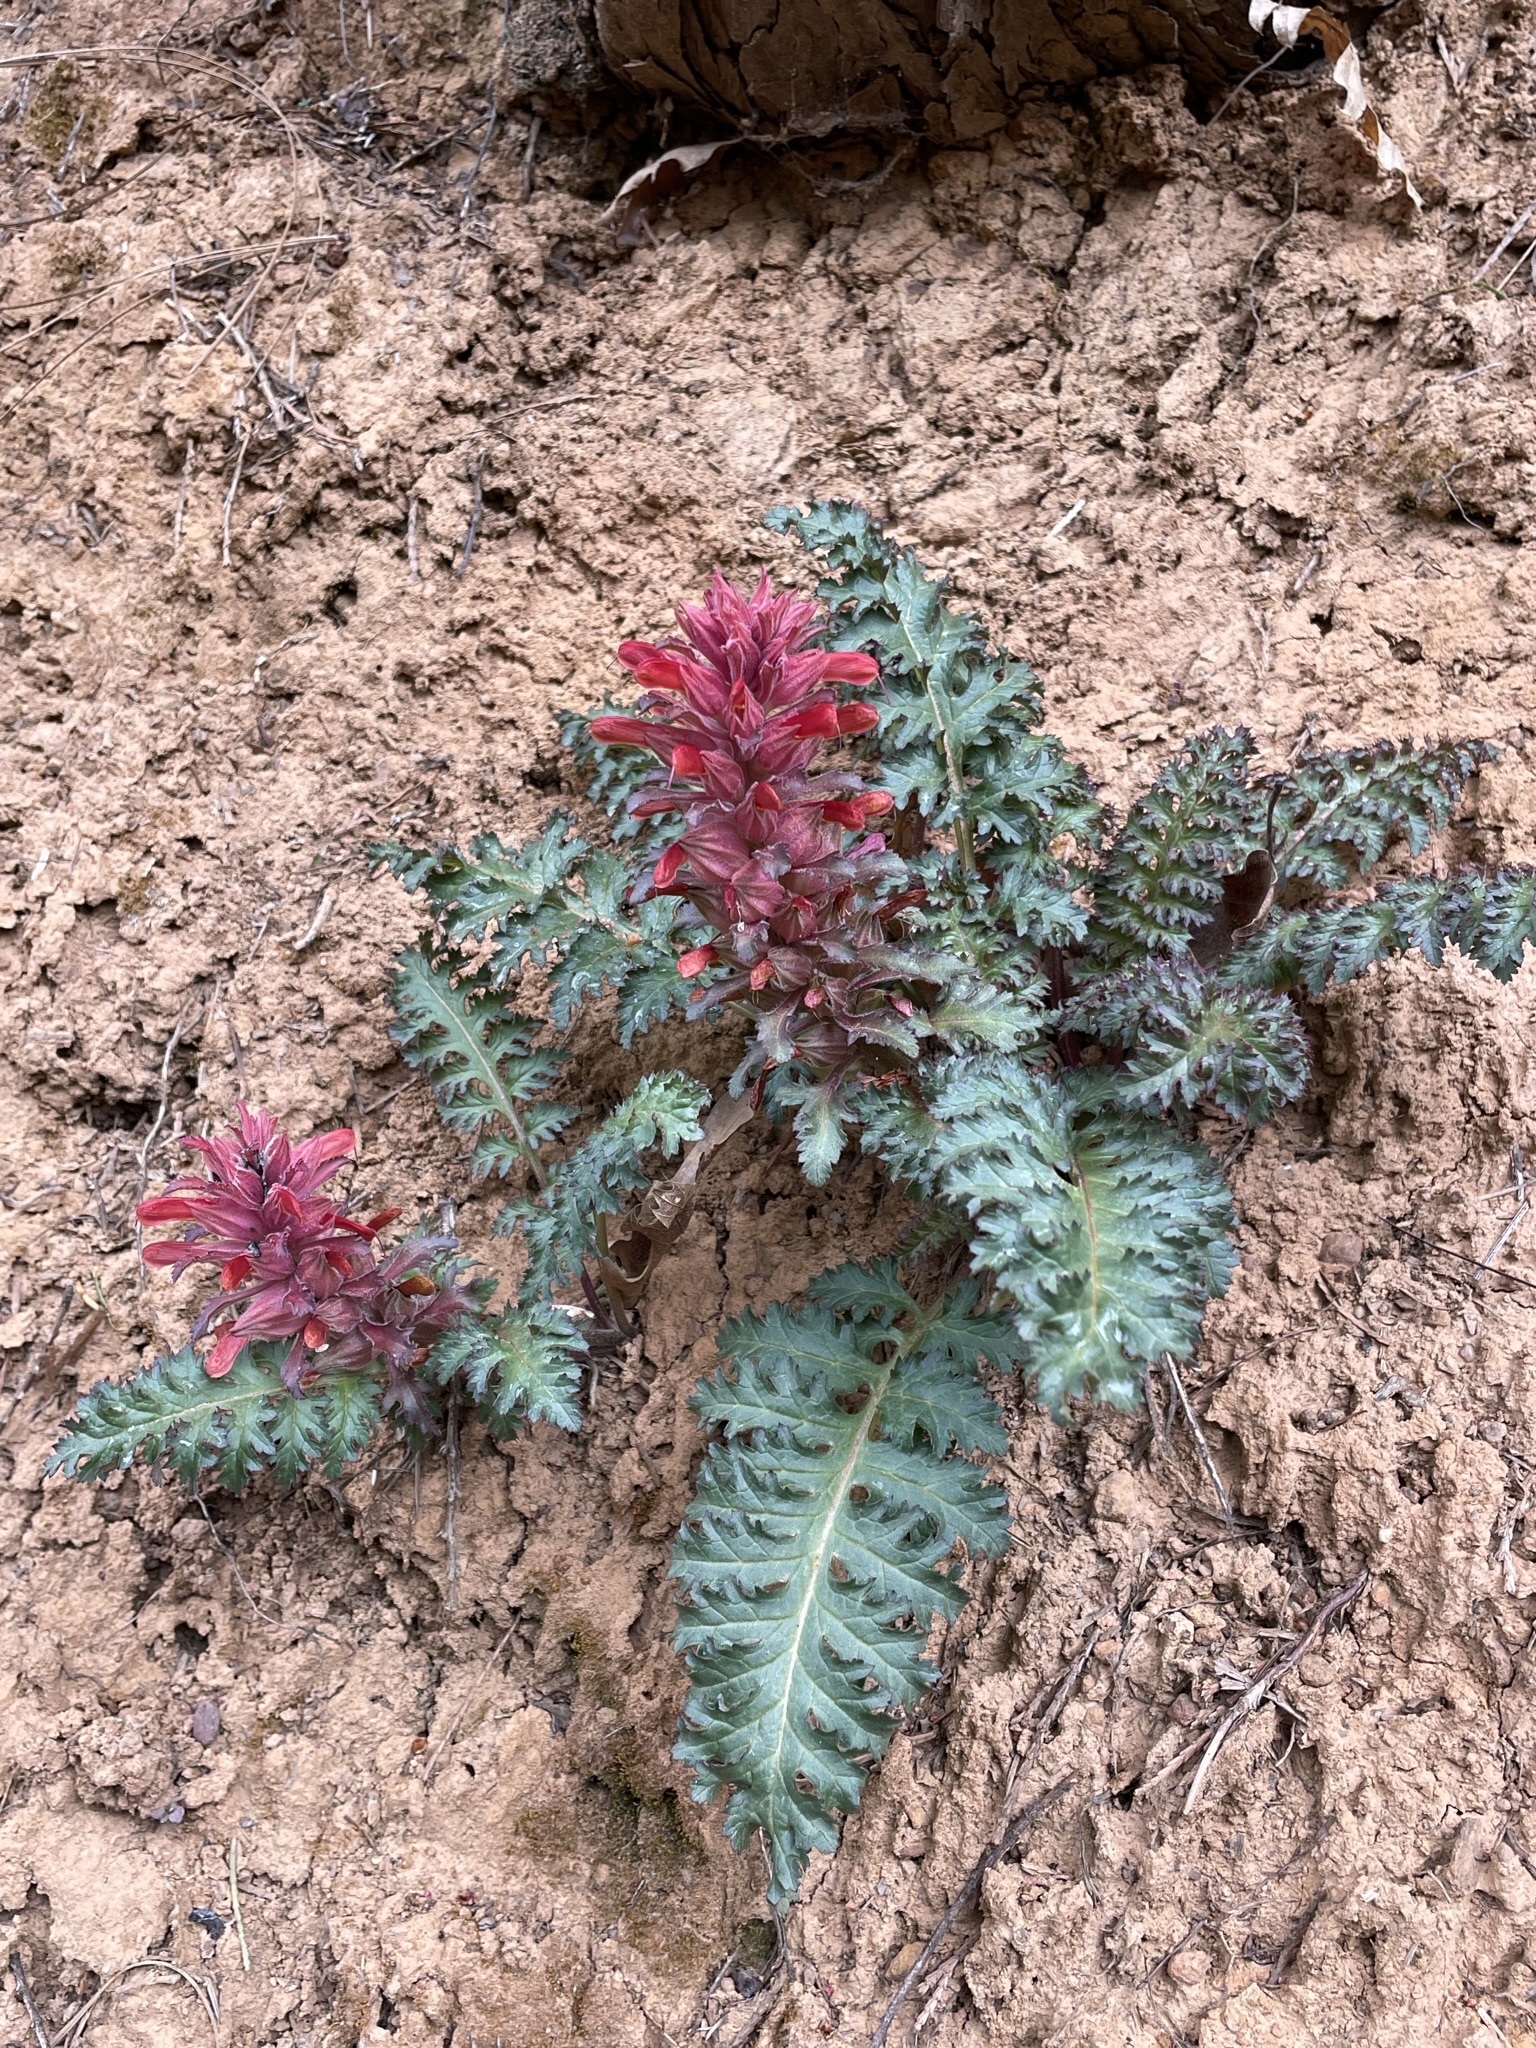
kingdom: Plantae
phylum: Tracheophyta
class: Magnoliopsida
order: Lamiales
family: Orobanchaceae
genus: Pedicularis
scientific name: Pedicularis densiflora
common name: Indian warrior
